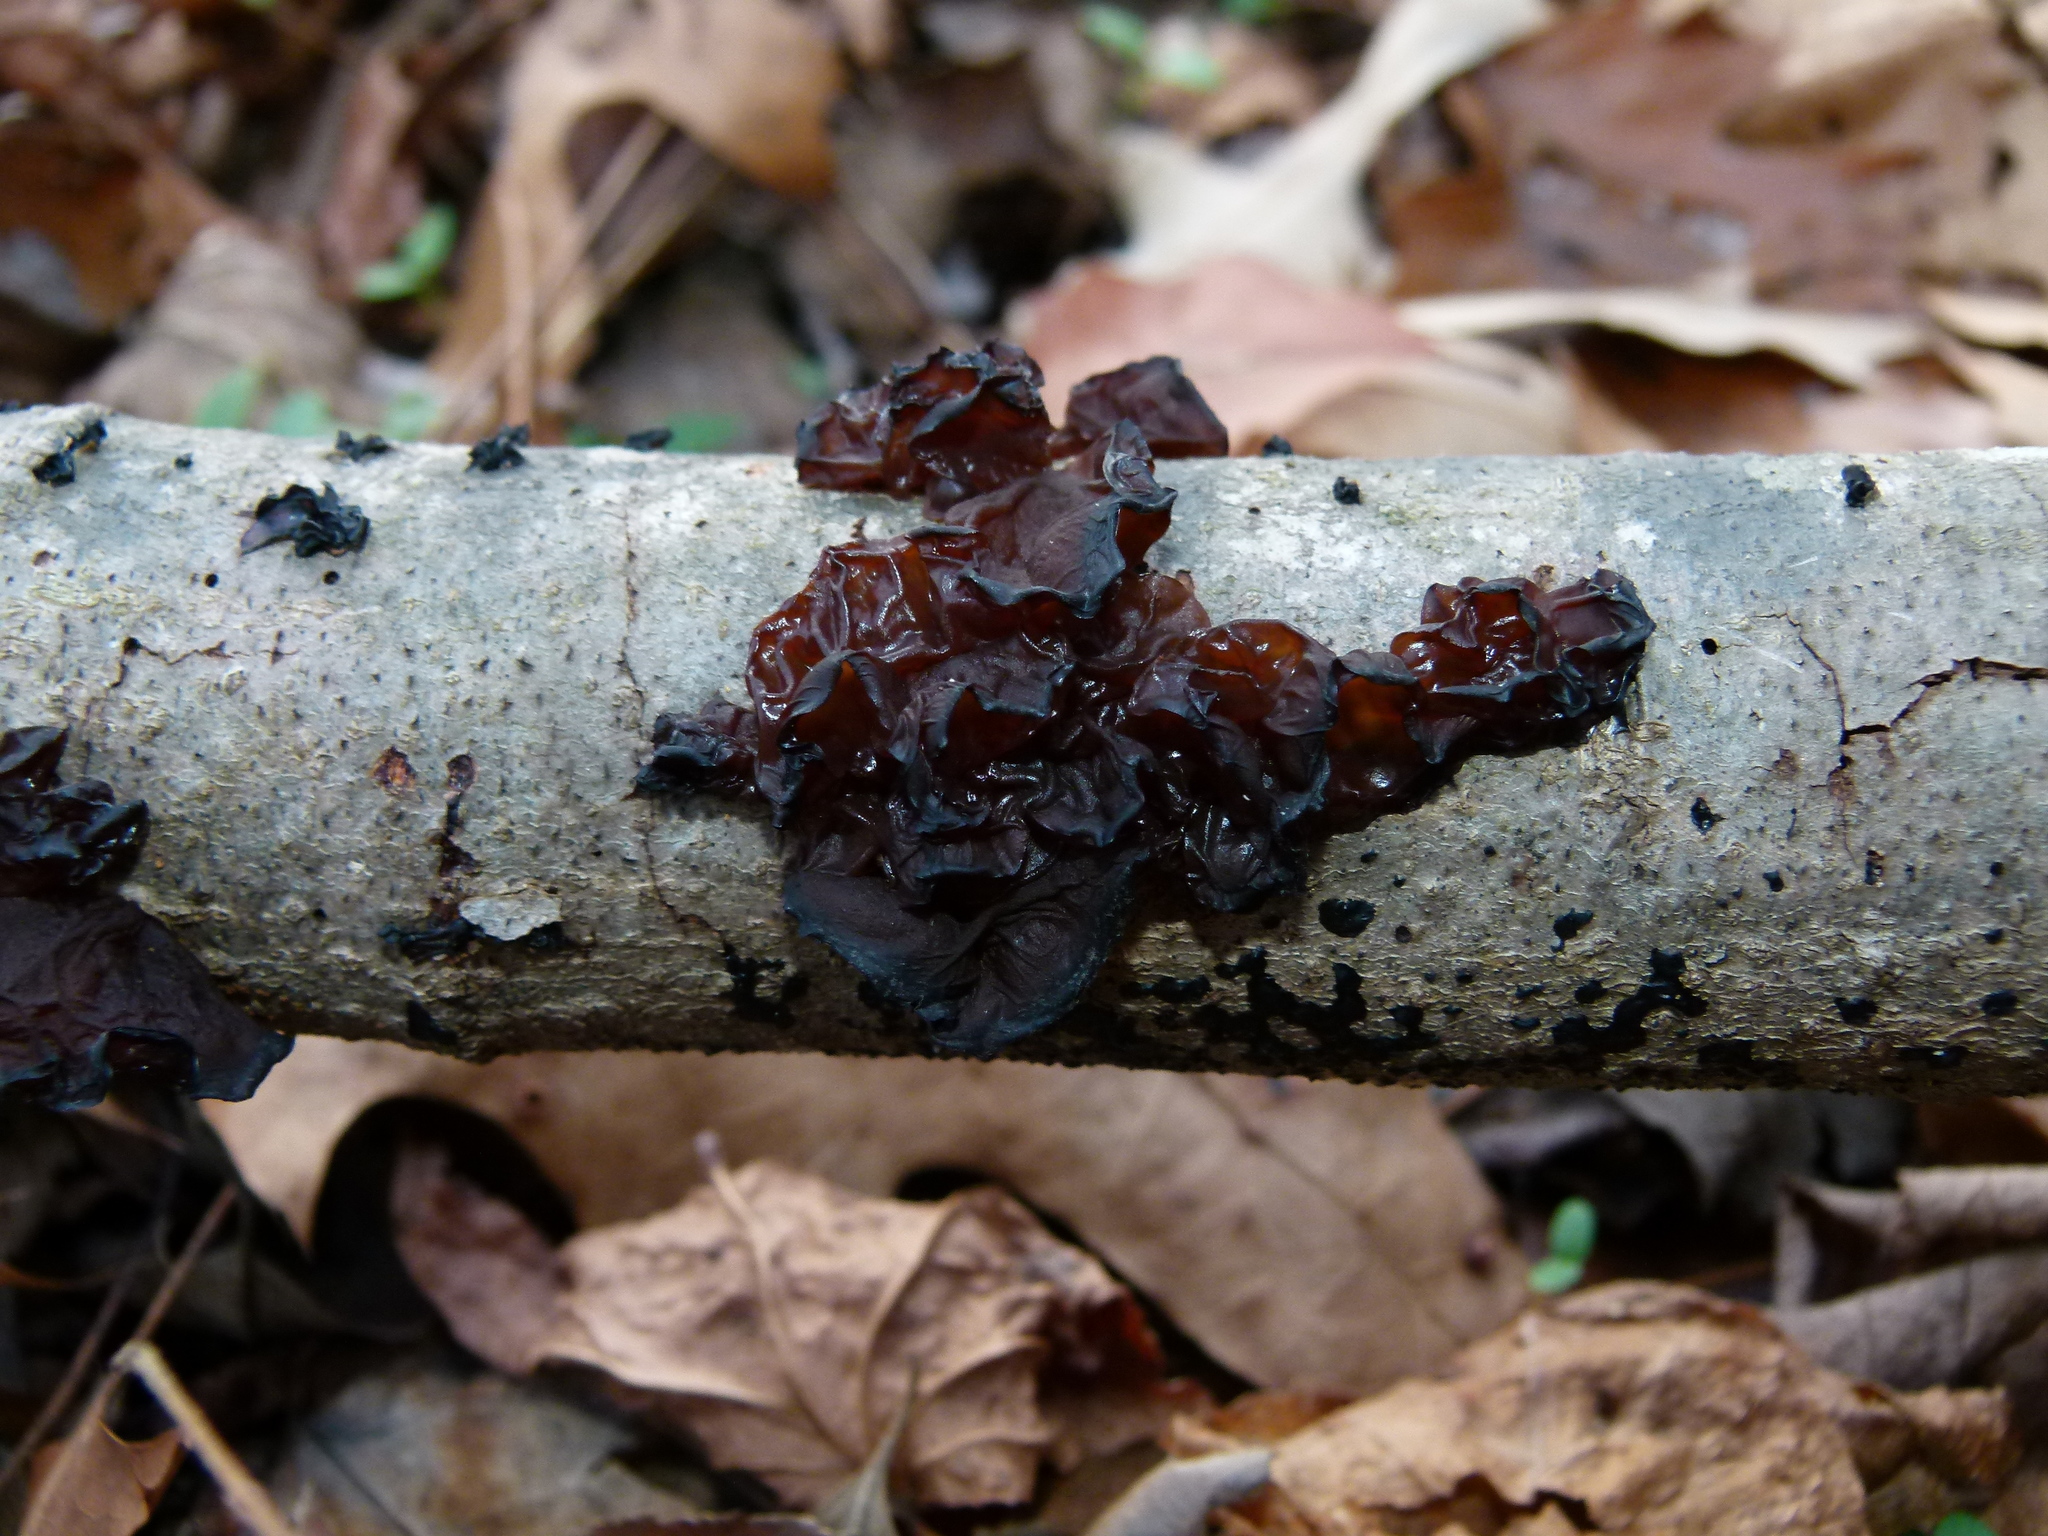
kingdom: Fungi
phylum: Basidiomycota
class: Agaricomycetes
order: Auriculariales
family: Auriculariaceae
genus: Exidia
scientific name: Exidia
